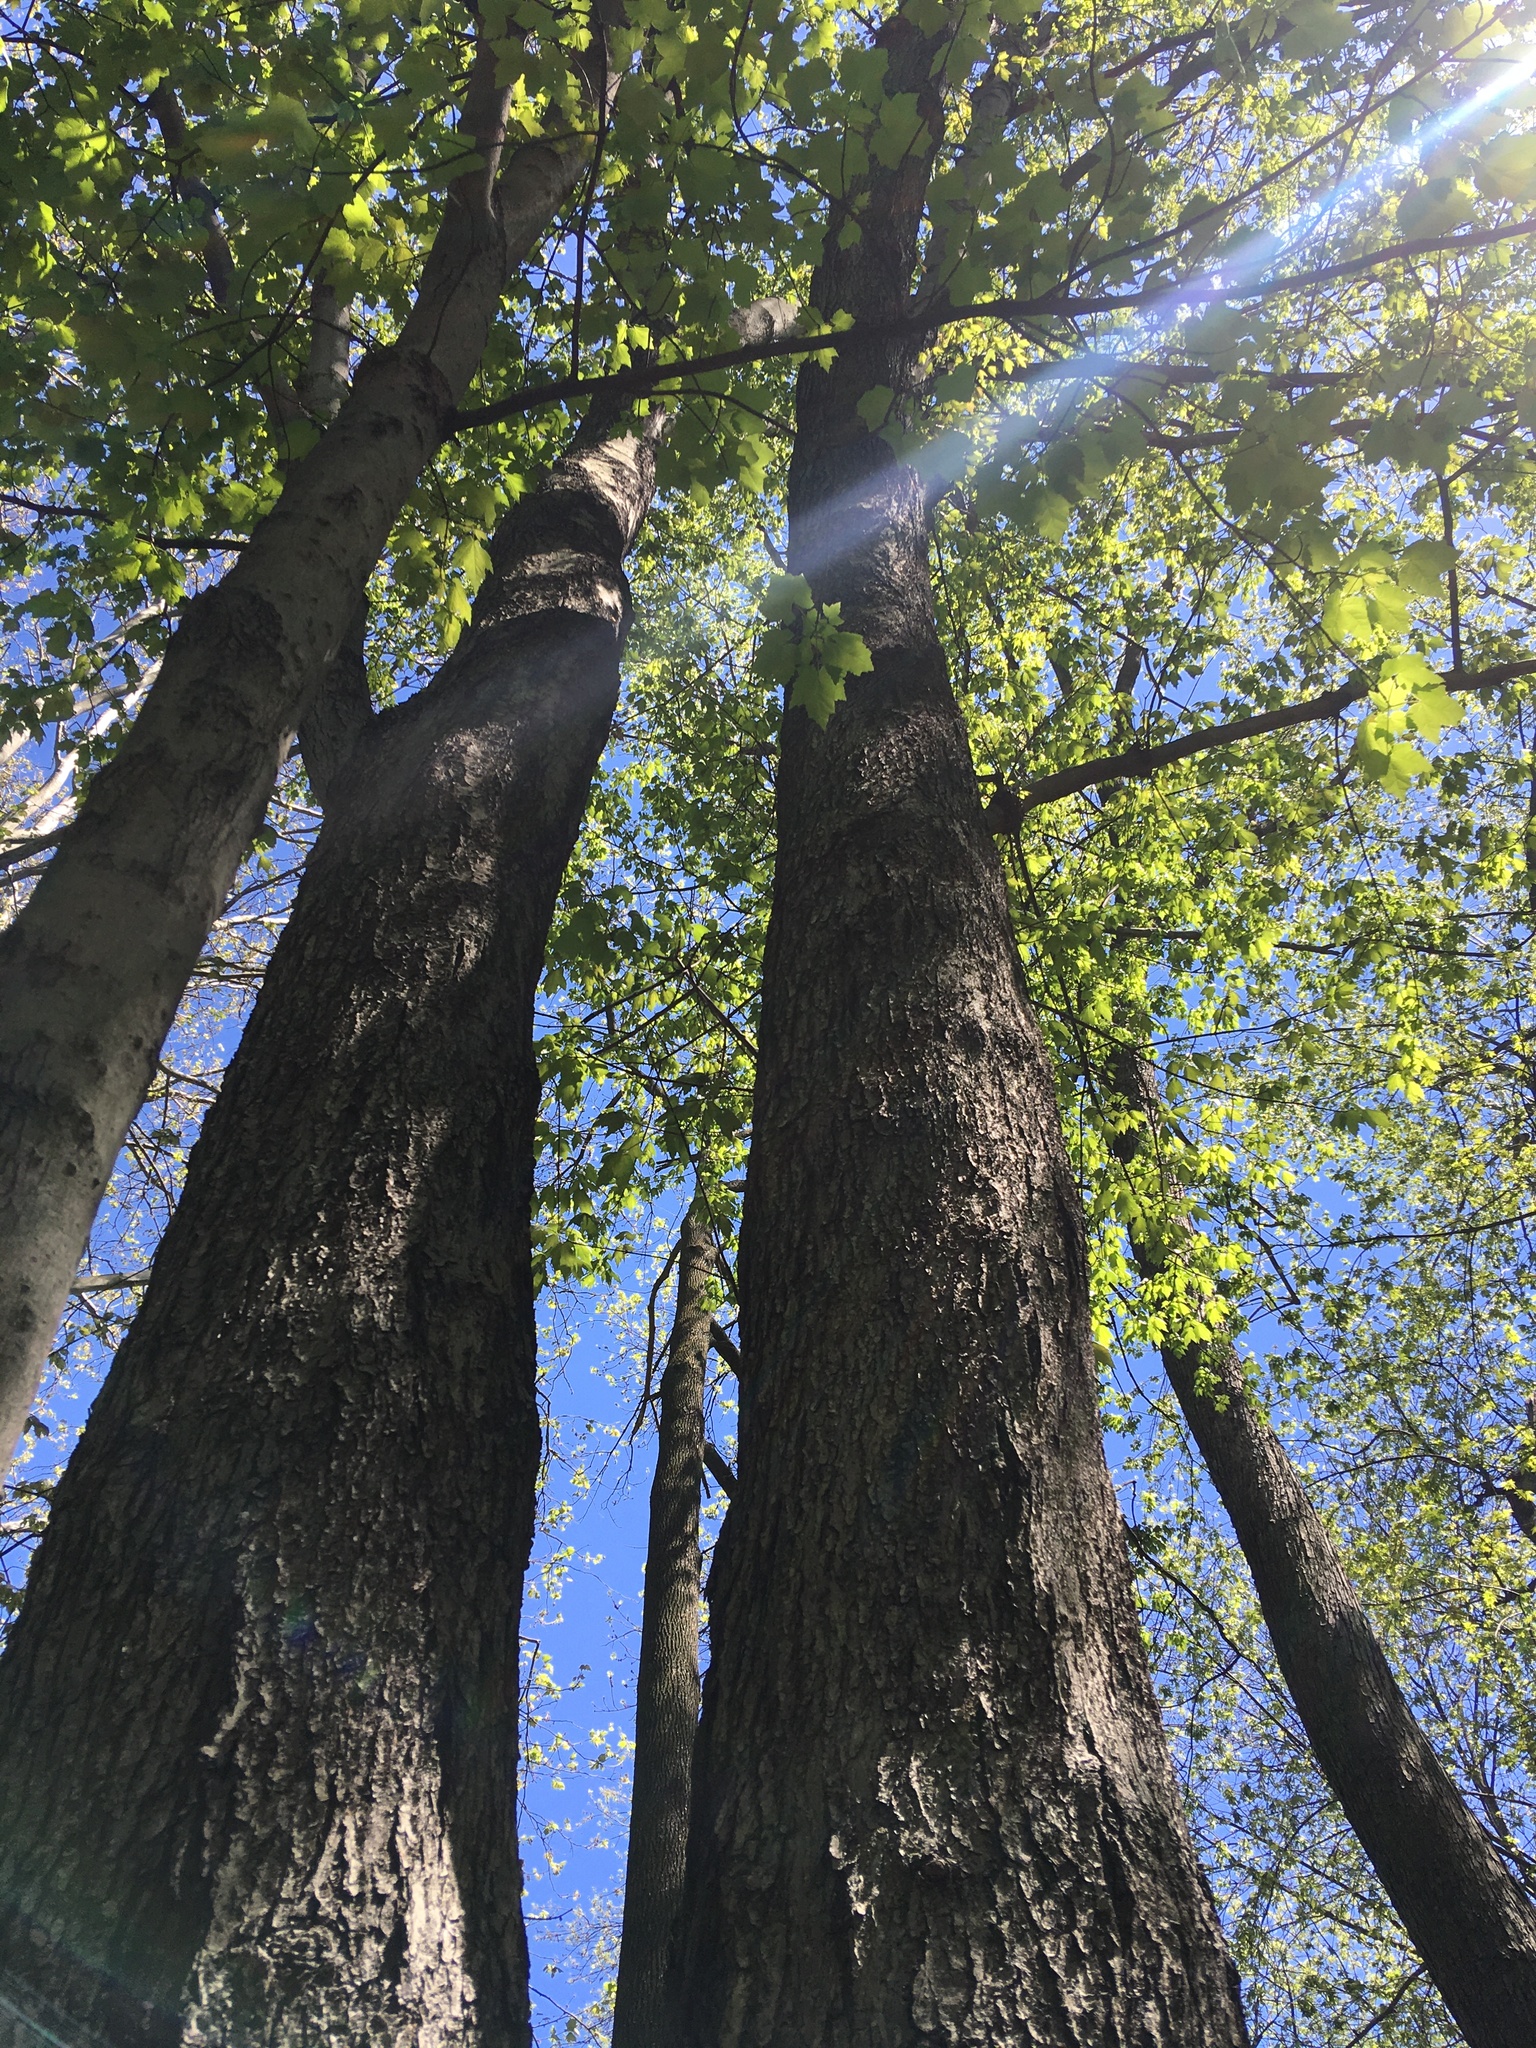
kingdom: Plantae
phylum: Tracheophyta
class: Magnoliopsida
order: Sapindales
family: Sapindaceae
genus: Acer
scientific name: Acer rubrum
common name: Red maple
